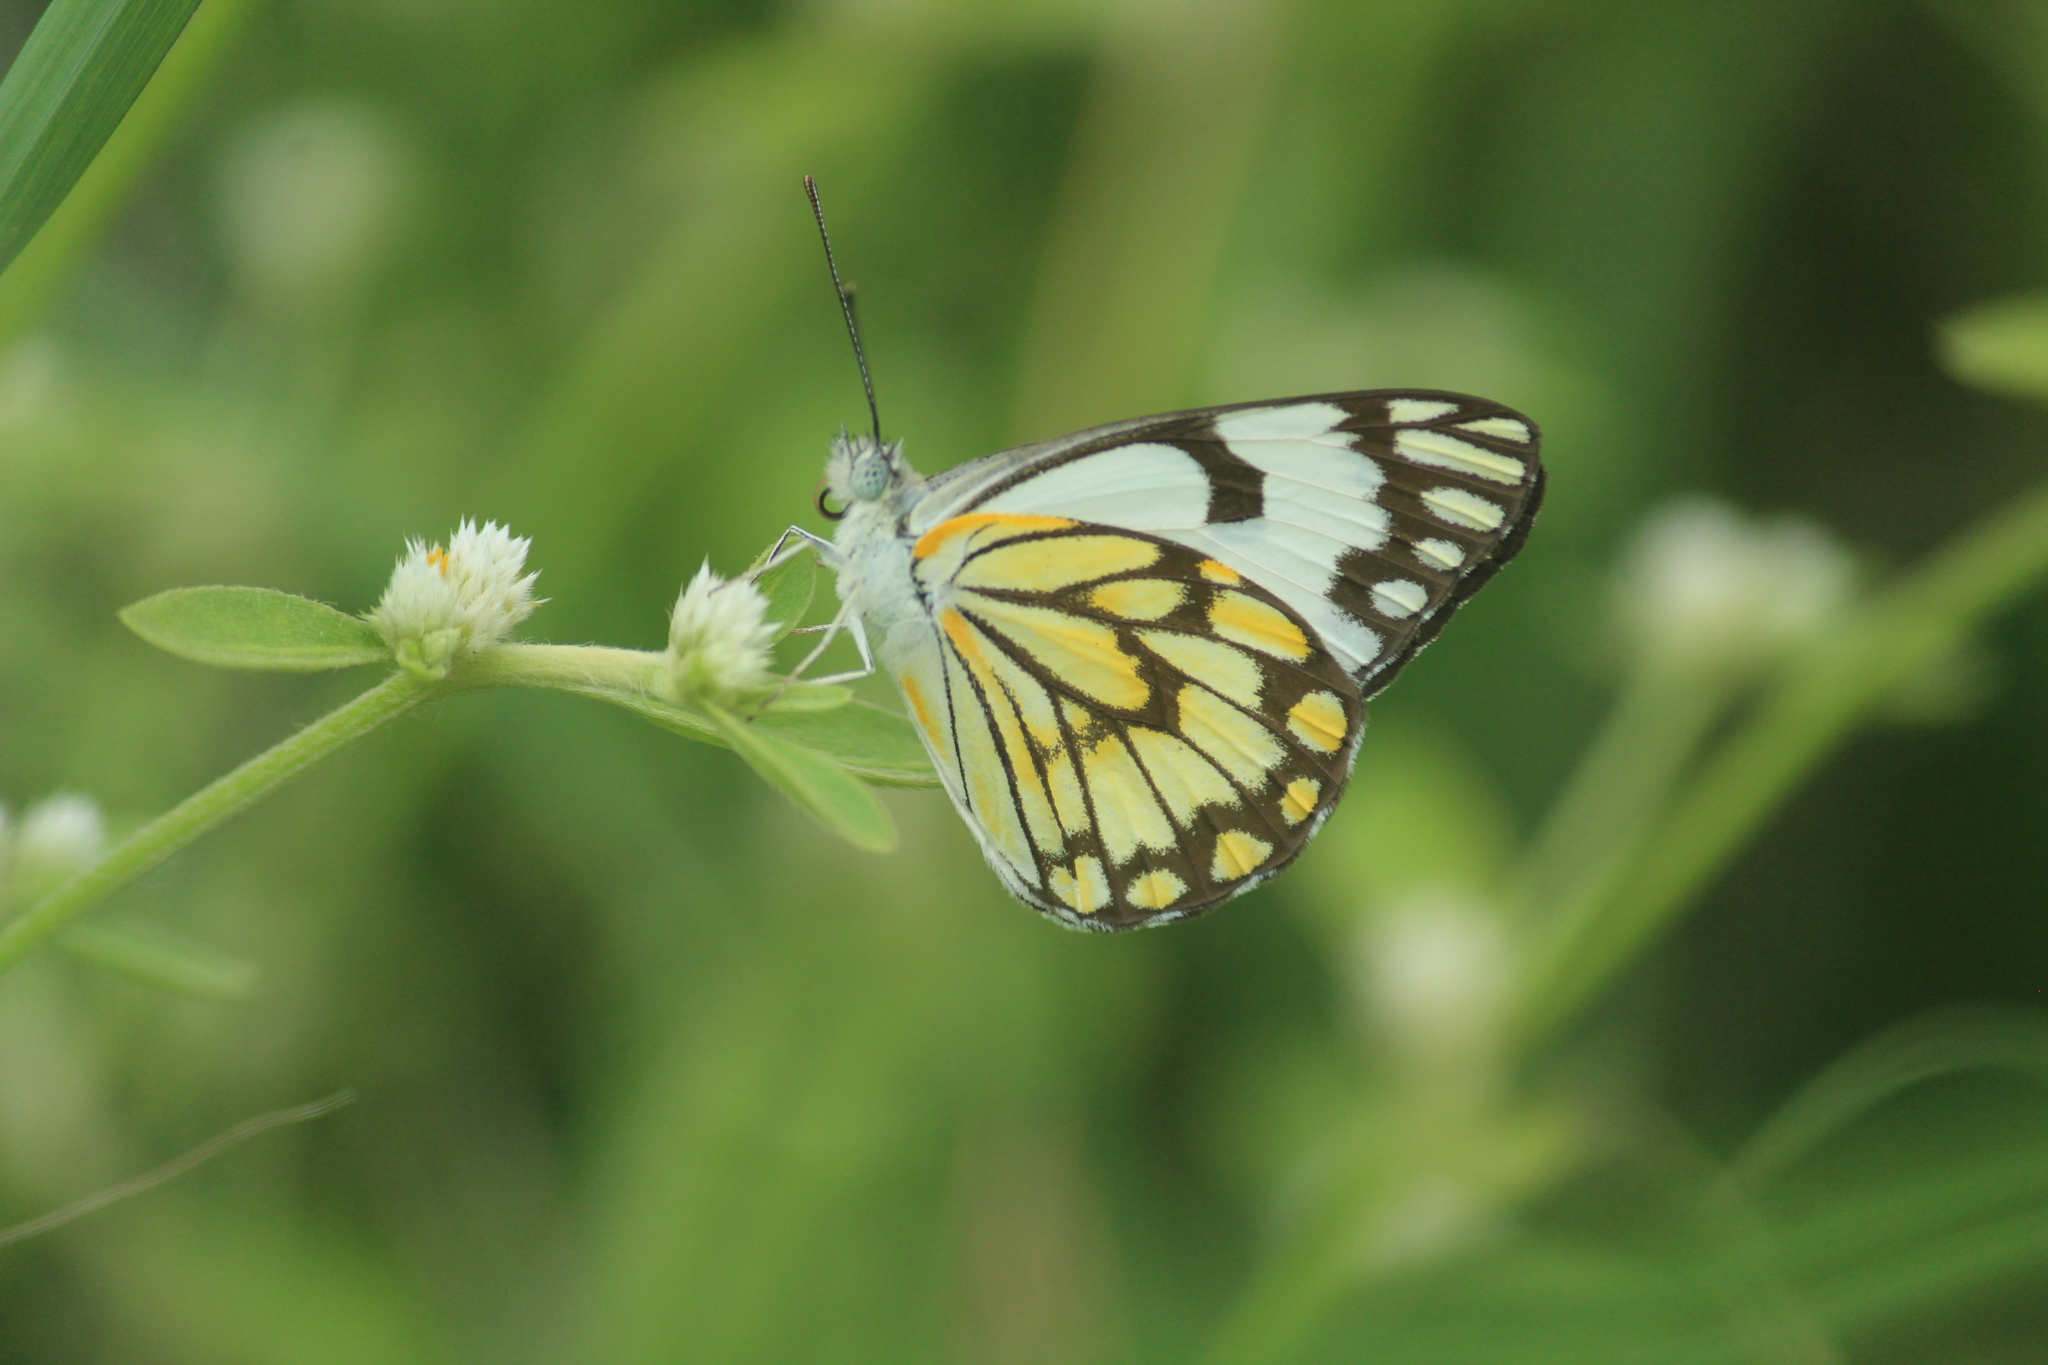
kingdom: Animalia
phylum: Arthropoda
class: Insecta
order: Lepidoptera
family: Pieridae
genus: Belenois
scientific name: Belenois aurota
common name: Brown-veined white
